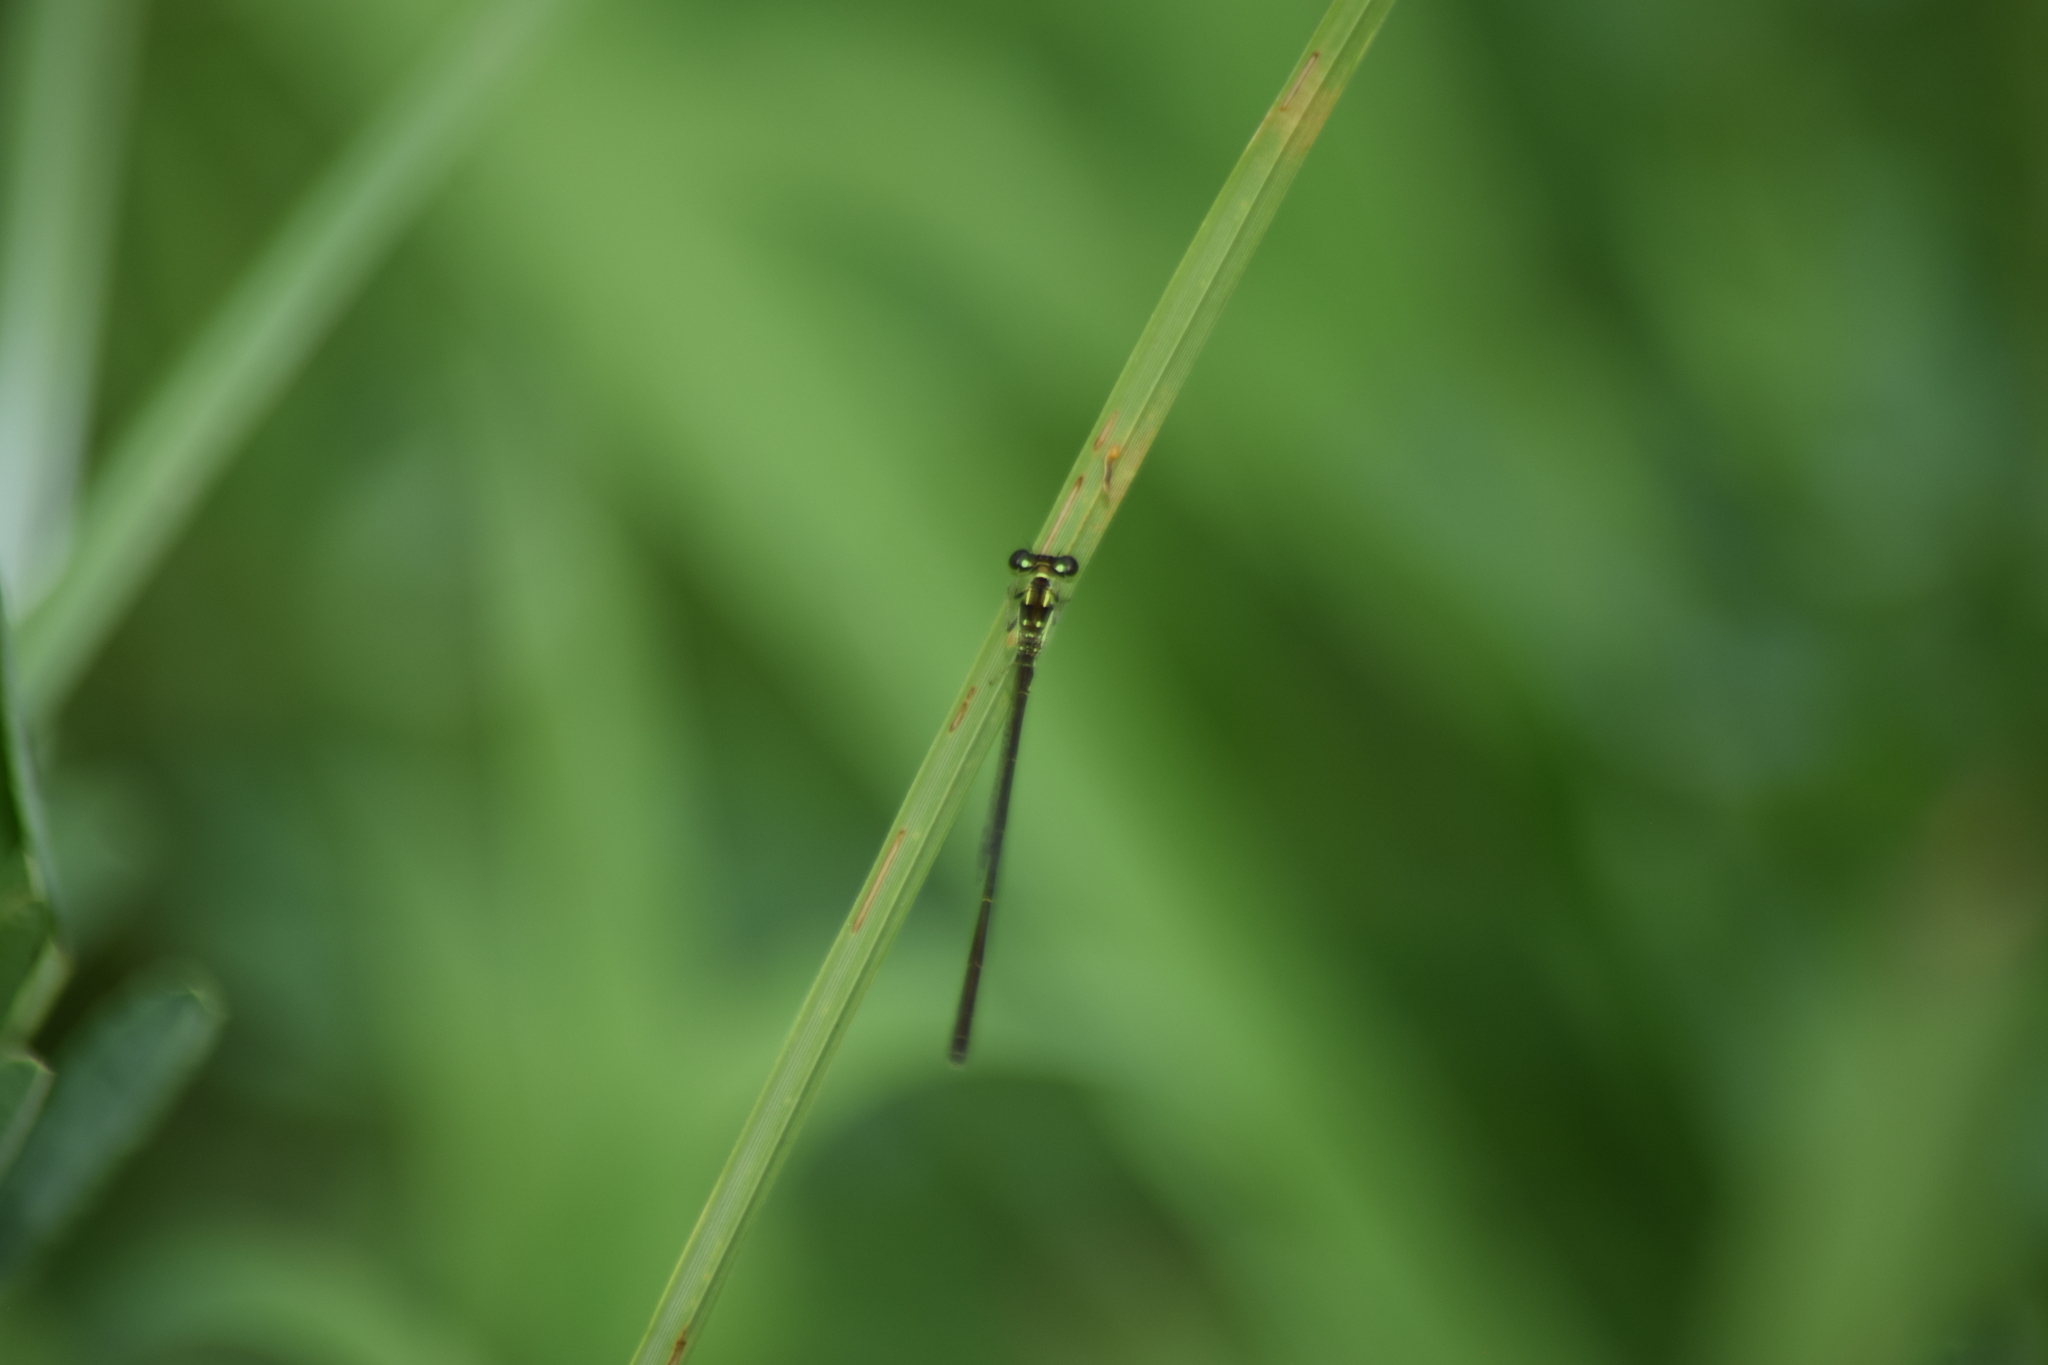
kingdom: Animalia
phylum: Arthropoda
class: Insecta
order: Odonata
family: Coenagrionidae
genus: Ischnura
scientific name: Ischnura posita
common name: Fragile forktail
